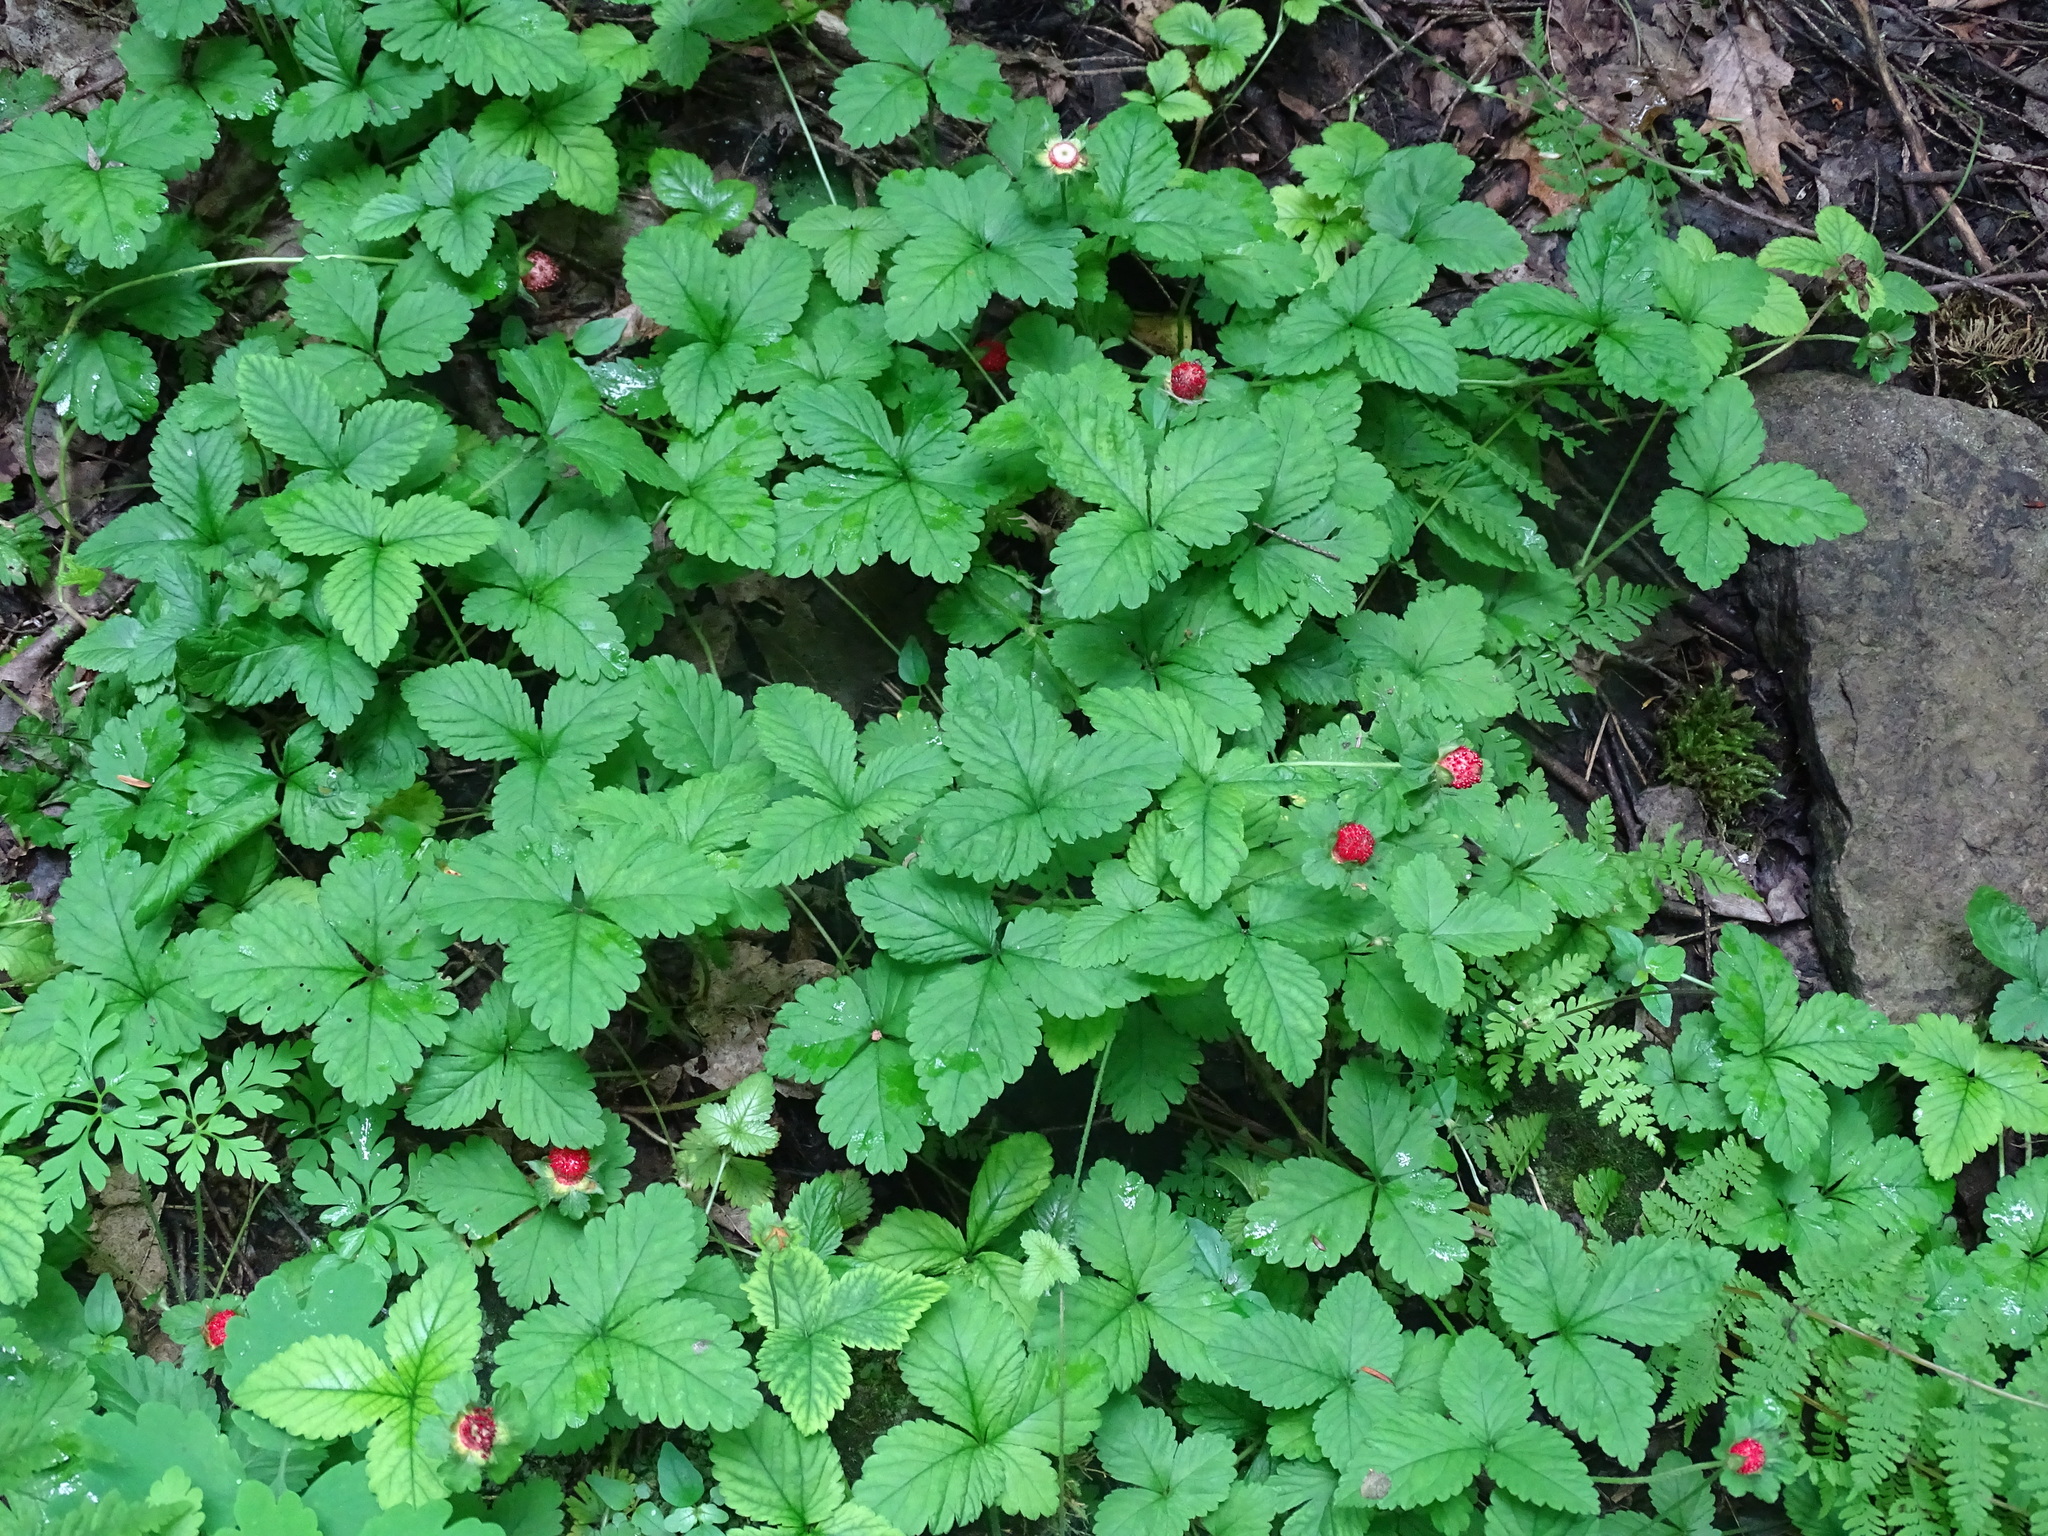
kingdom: Plantae
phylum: Tracheophyta
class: Magnoliopsida
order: Rosales
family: Rosaceae
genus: Potentilla
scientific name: Potentilla indica
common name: Yellow-flowered strawberry
